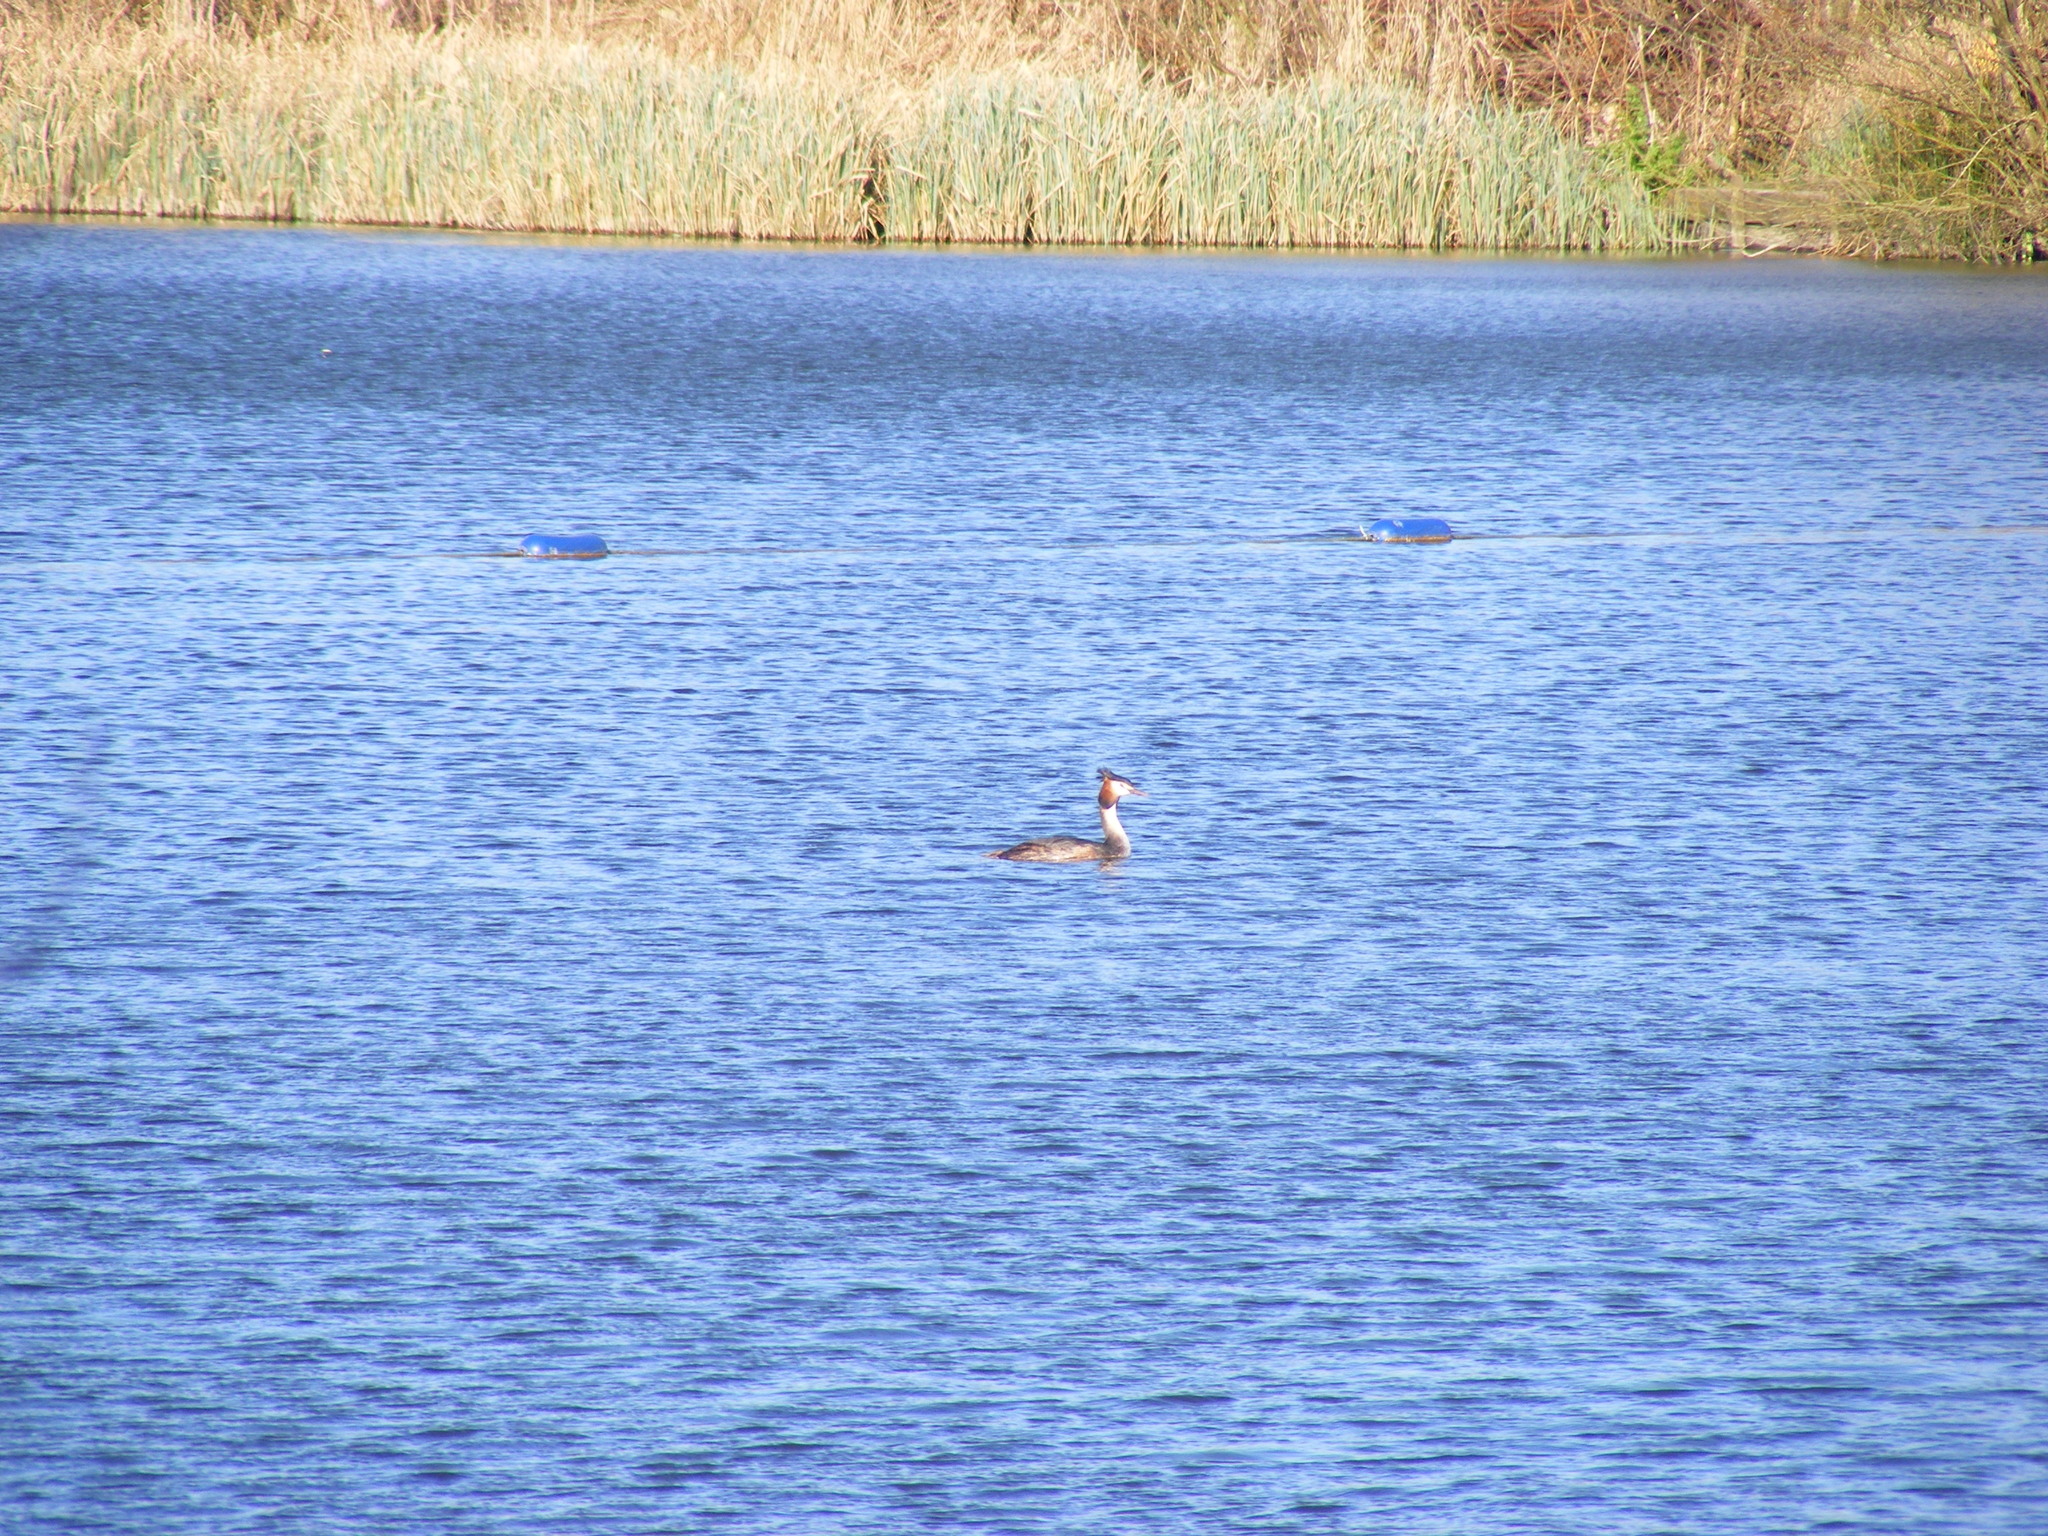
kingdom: Animalia
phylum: Chordata
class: Aves
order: Podicipediformes
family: Podicipedidae
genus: Podiceps
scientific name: Podiceps cristatus
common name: Great crested grebe
